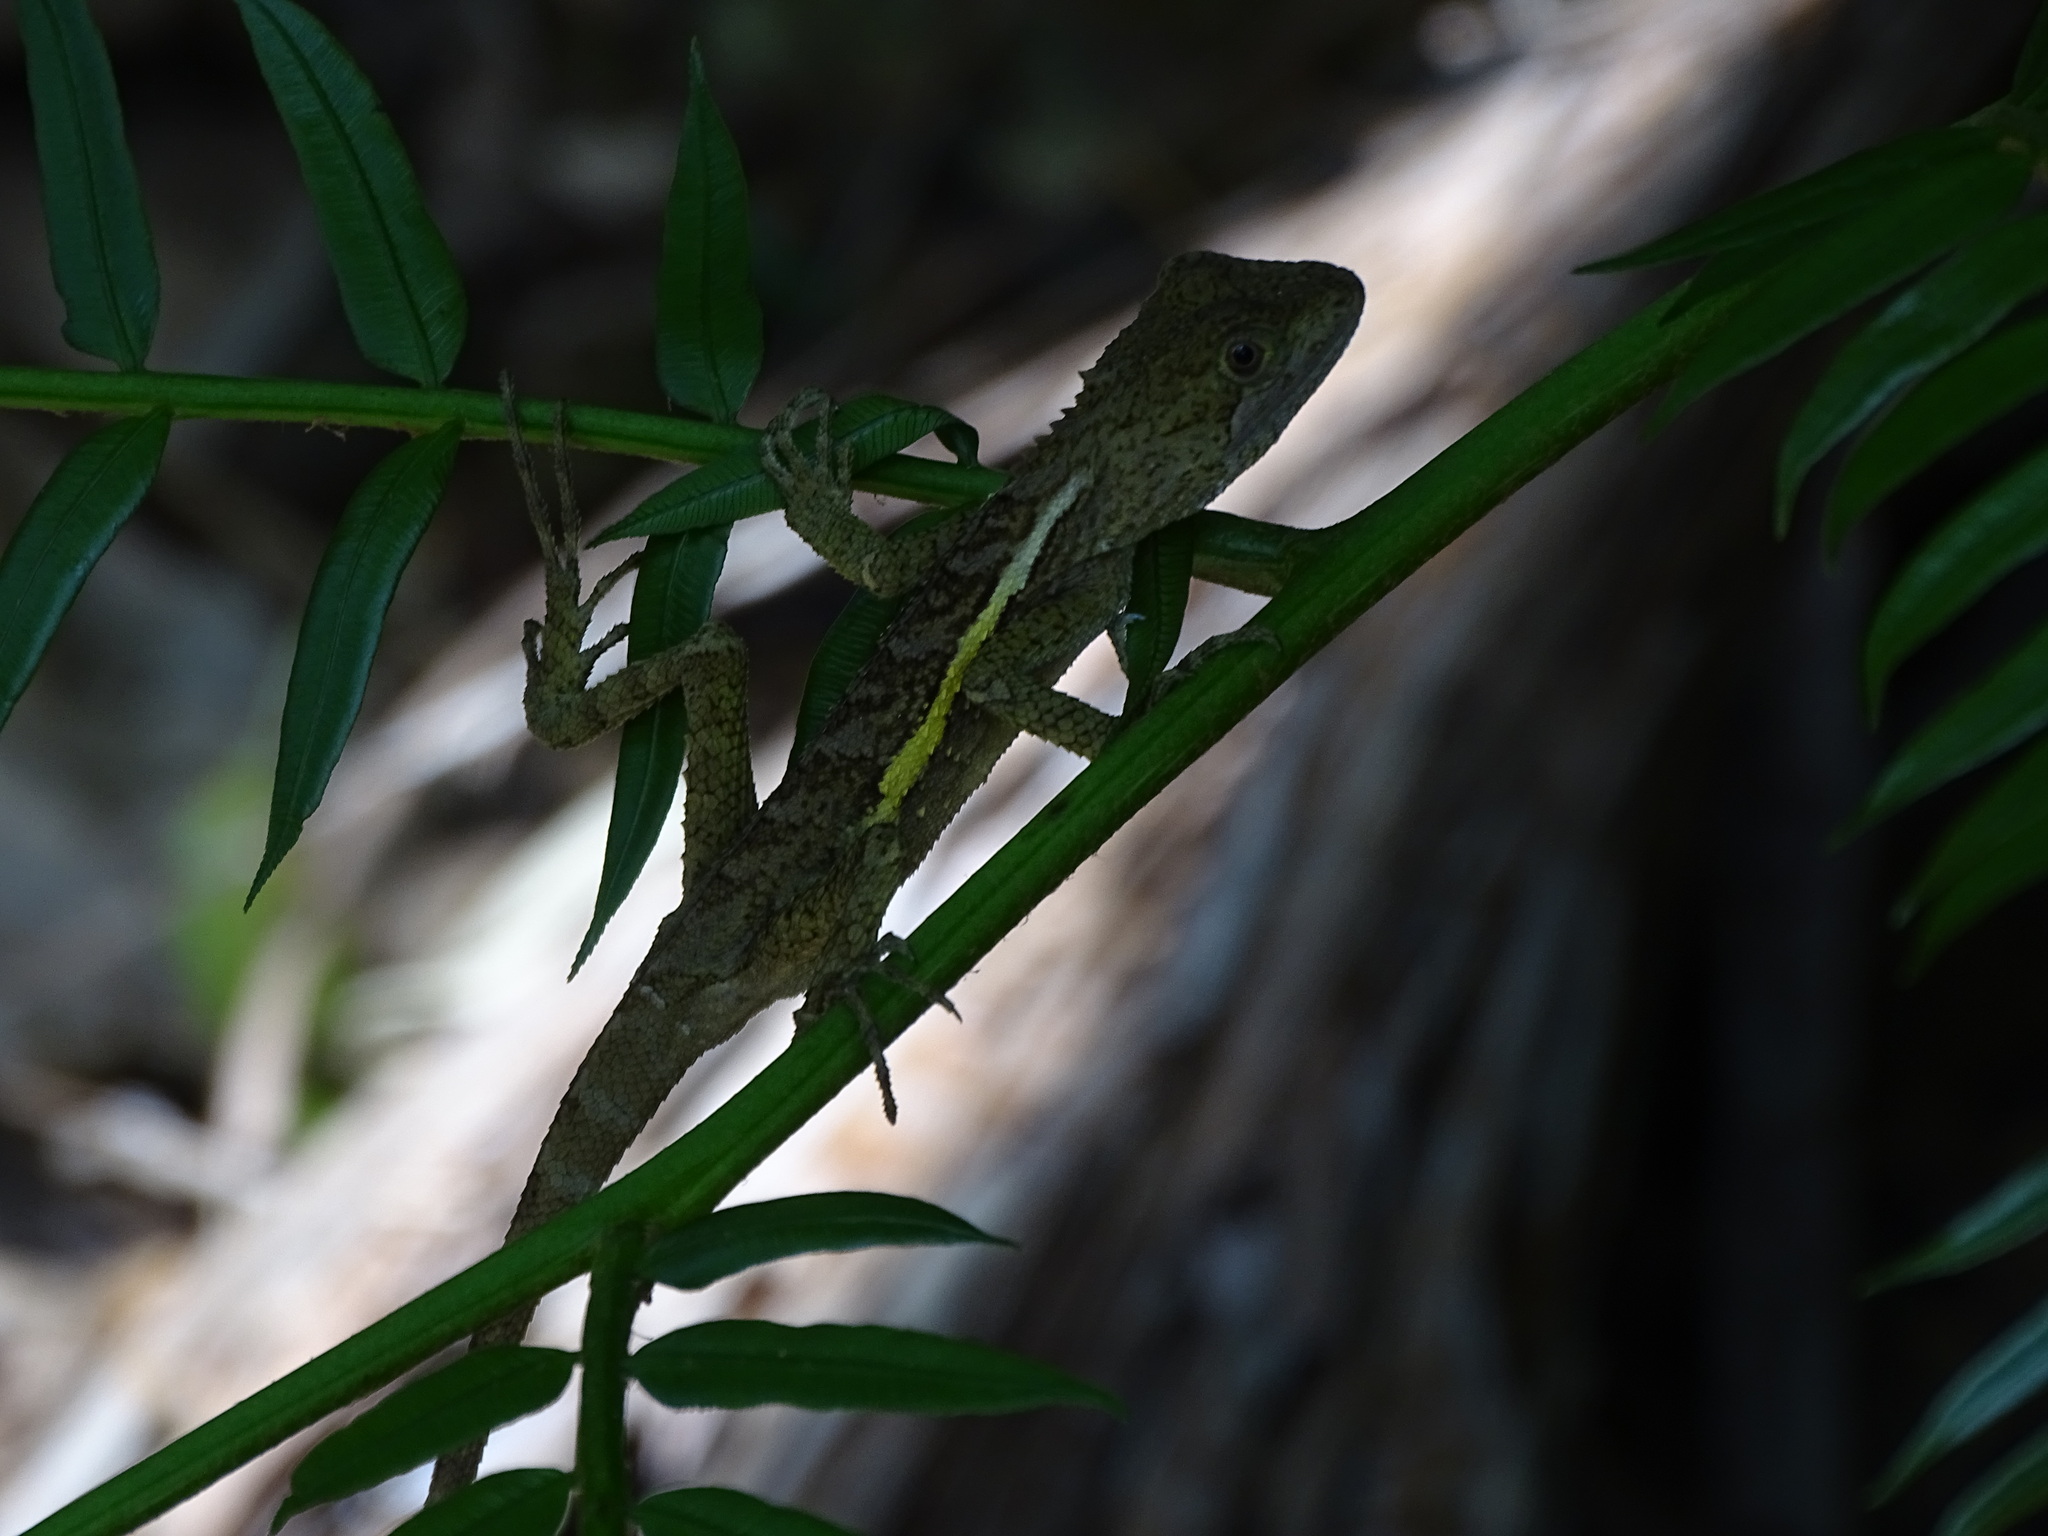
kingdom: Animalia
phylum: Chordata
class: Squamata
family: Agamidae
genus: Diploderma
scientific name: Diploderma swinhonis
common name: Taiwan japalure
